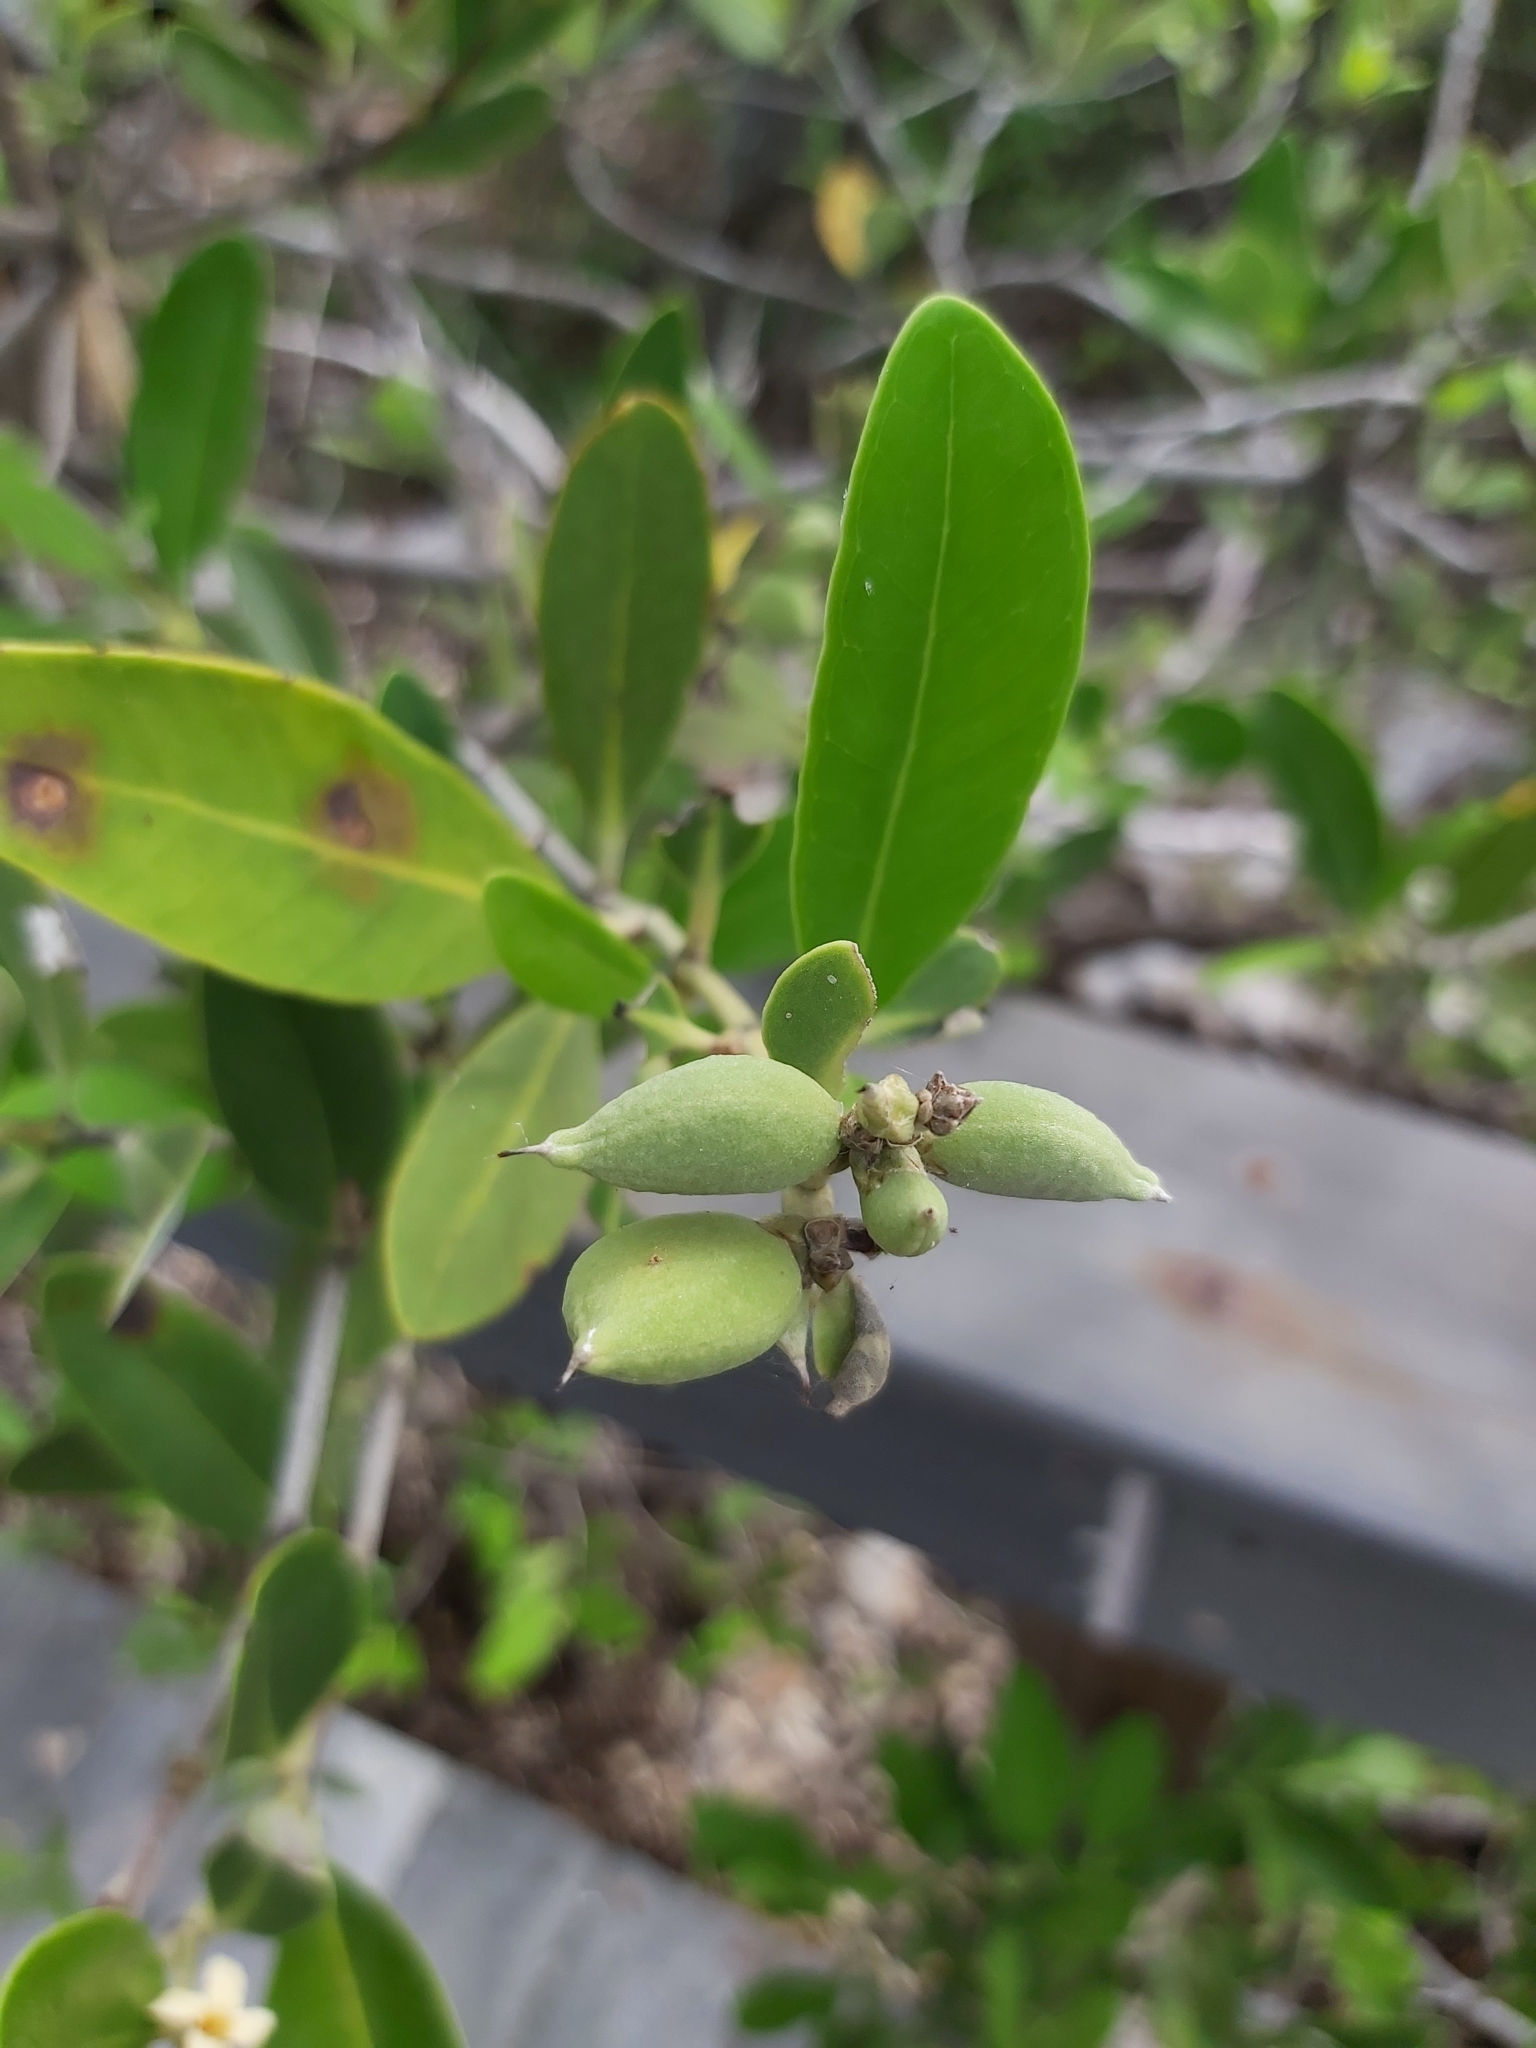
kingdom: Plantae
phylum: Tracheophyta
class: Magnoliopsida
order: Lamiales
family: Acanthaceae
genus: Avicennia
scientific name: Avicennia germinans
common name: Black mangrove
